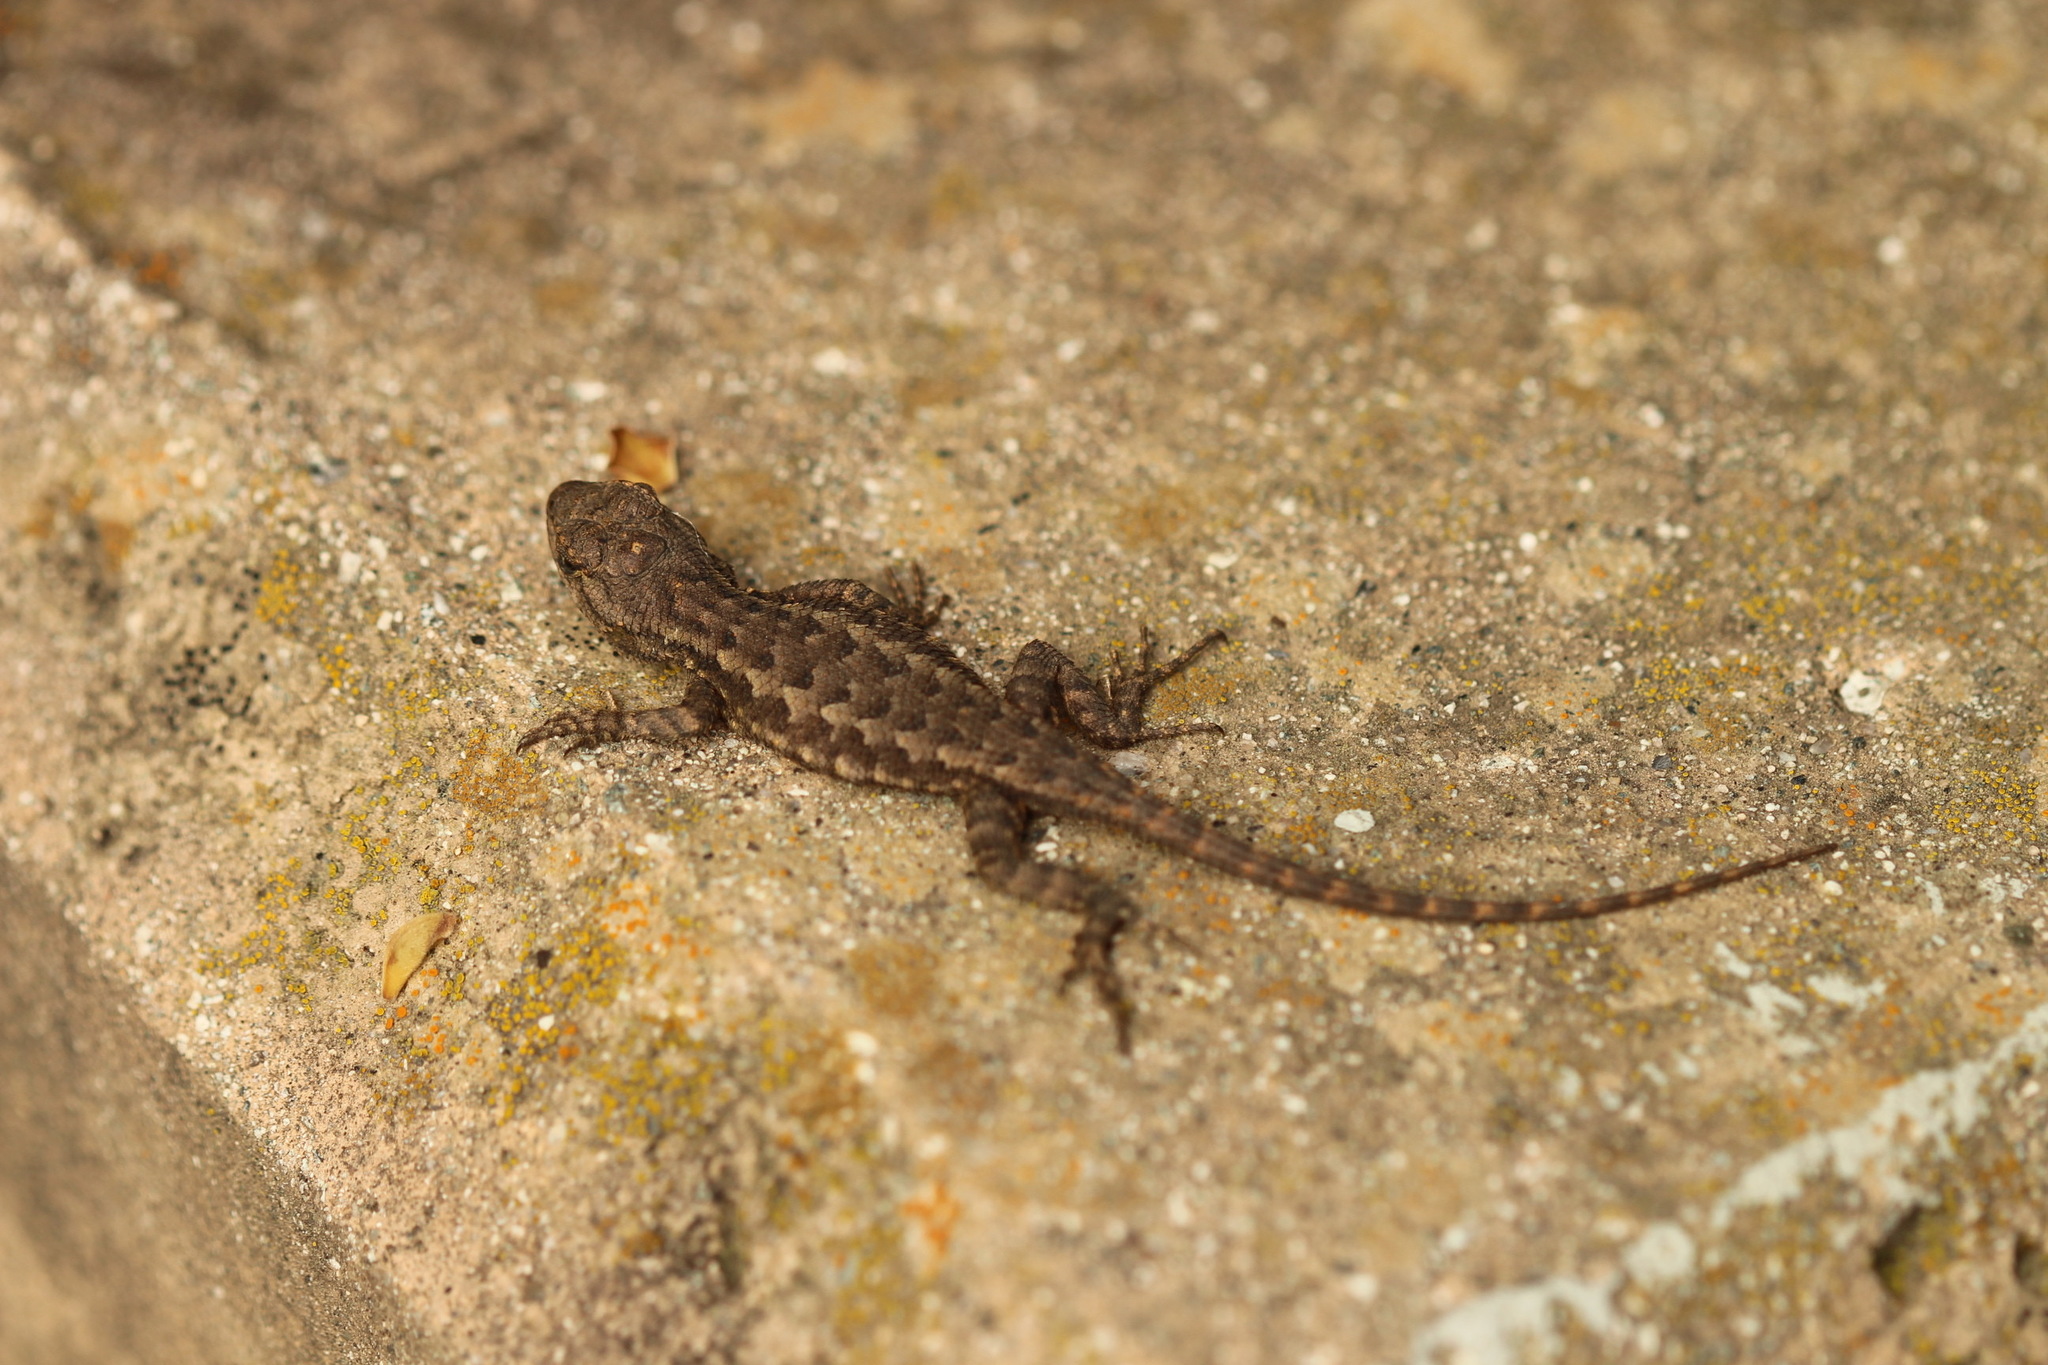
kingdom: Animalia
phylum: Chordata
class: Squamata
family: Phrynosomatidae
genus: Sceloporus
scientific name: Sceloporus occidentalis
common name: Western fence lizard
